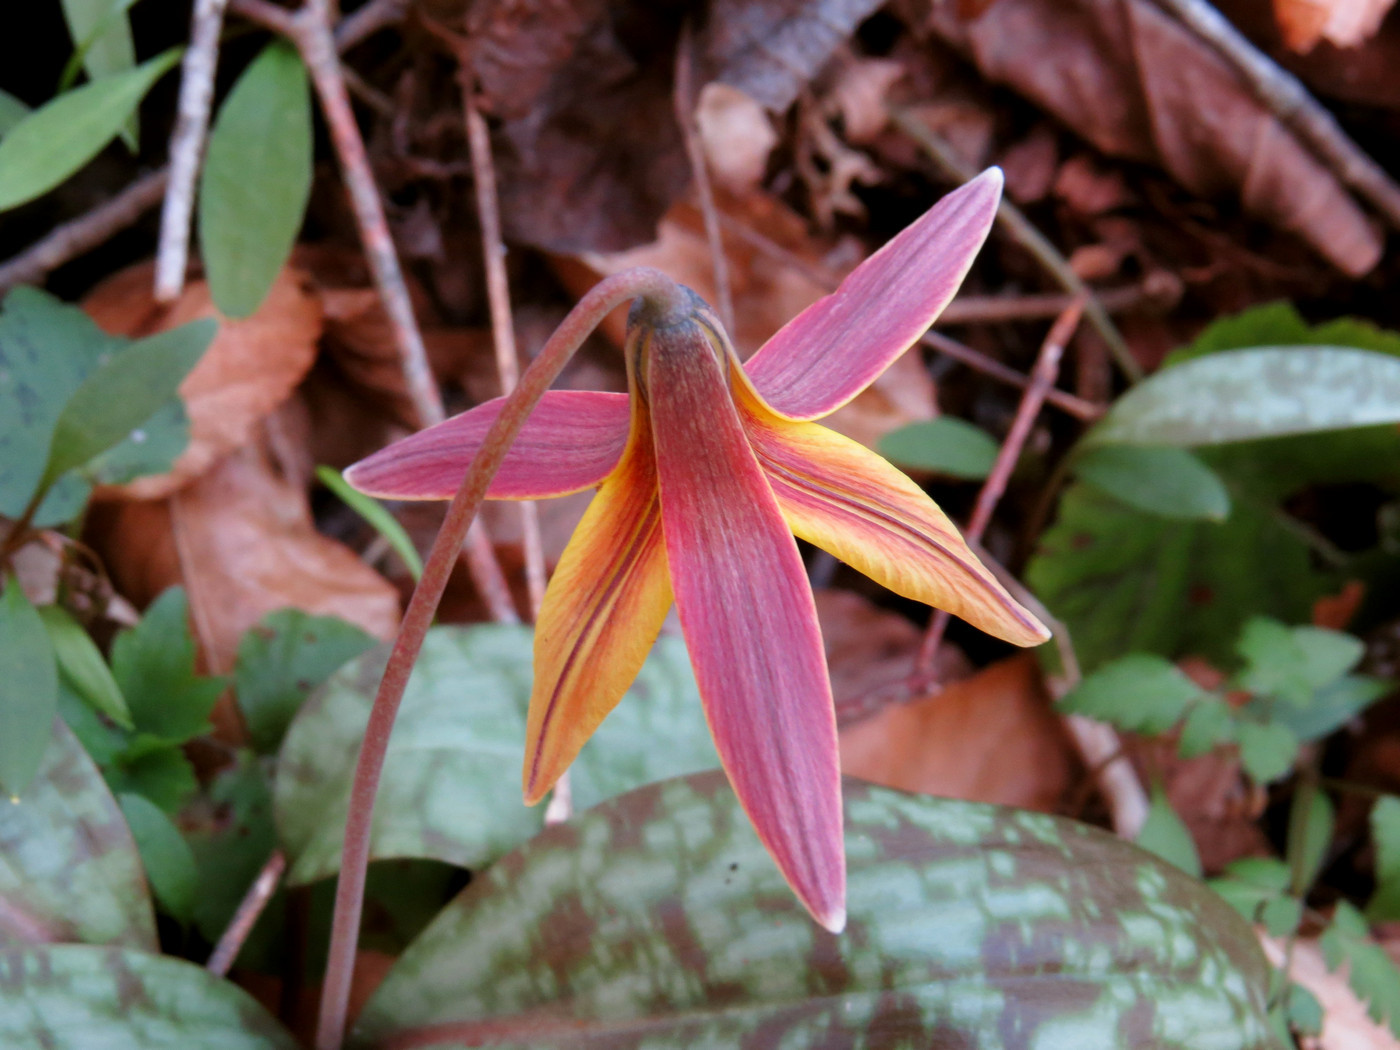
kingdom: Plantae
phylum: Tracheophyta
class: Liliopsida
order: Liliales
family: Liliaceae
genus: Erythronium
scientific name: Erythronium umbilicatum
